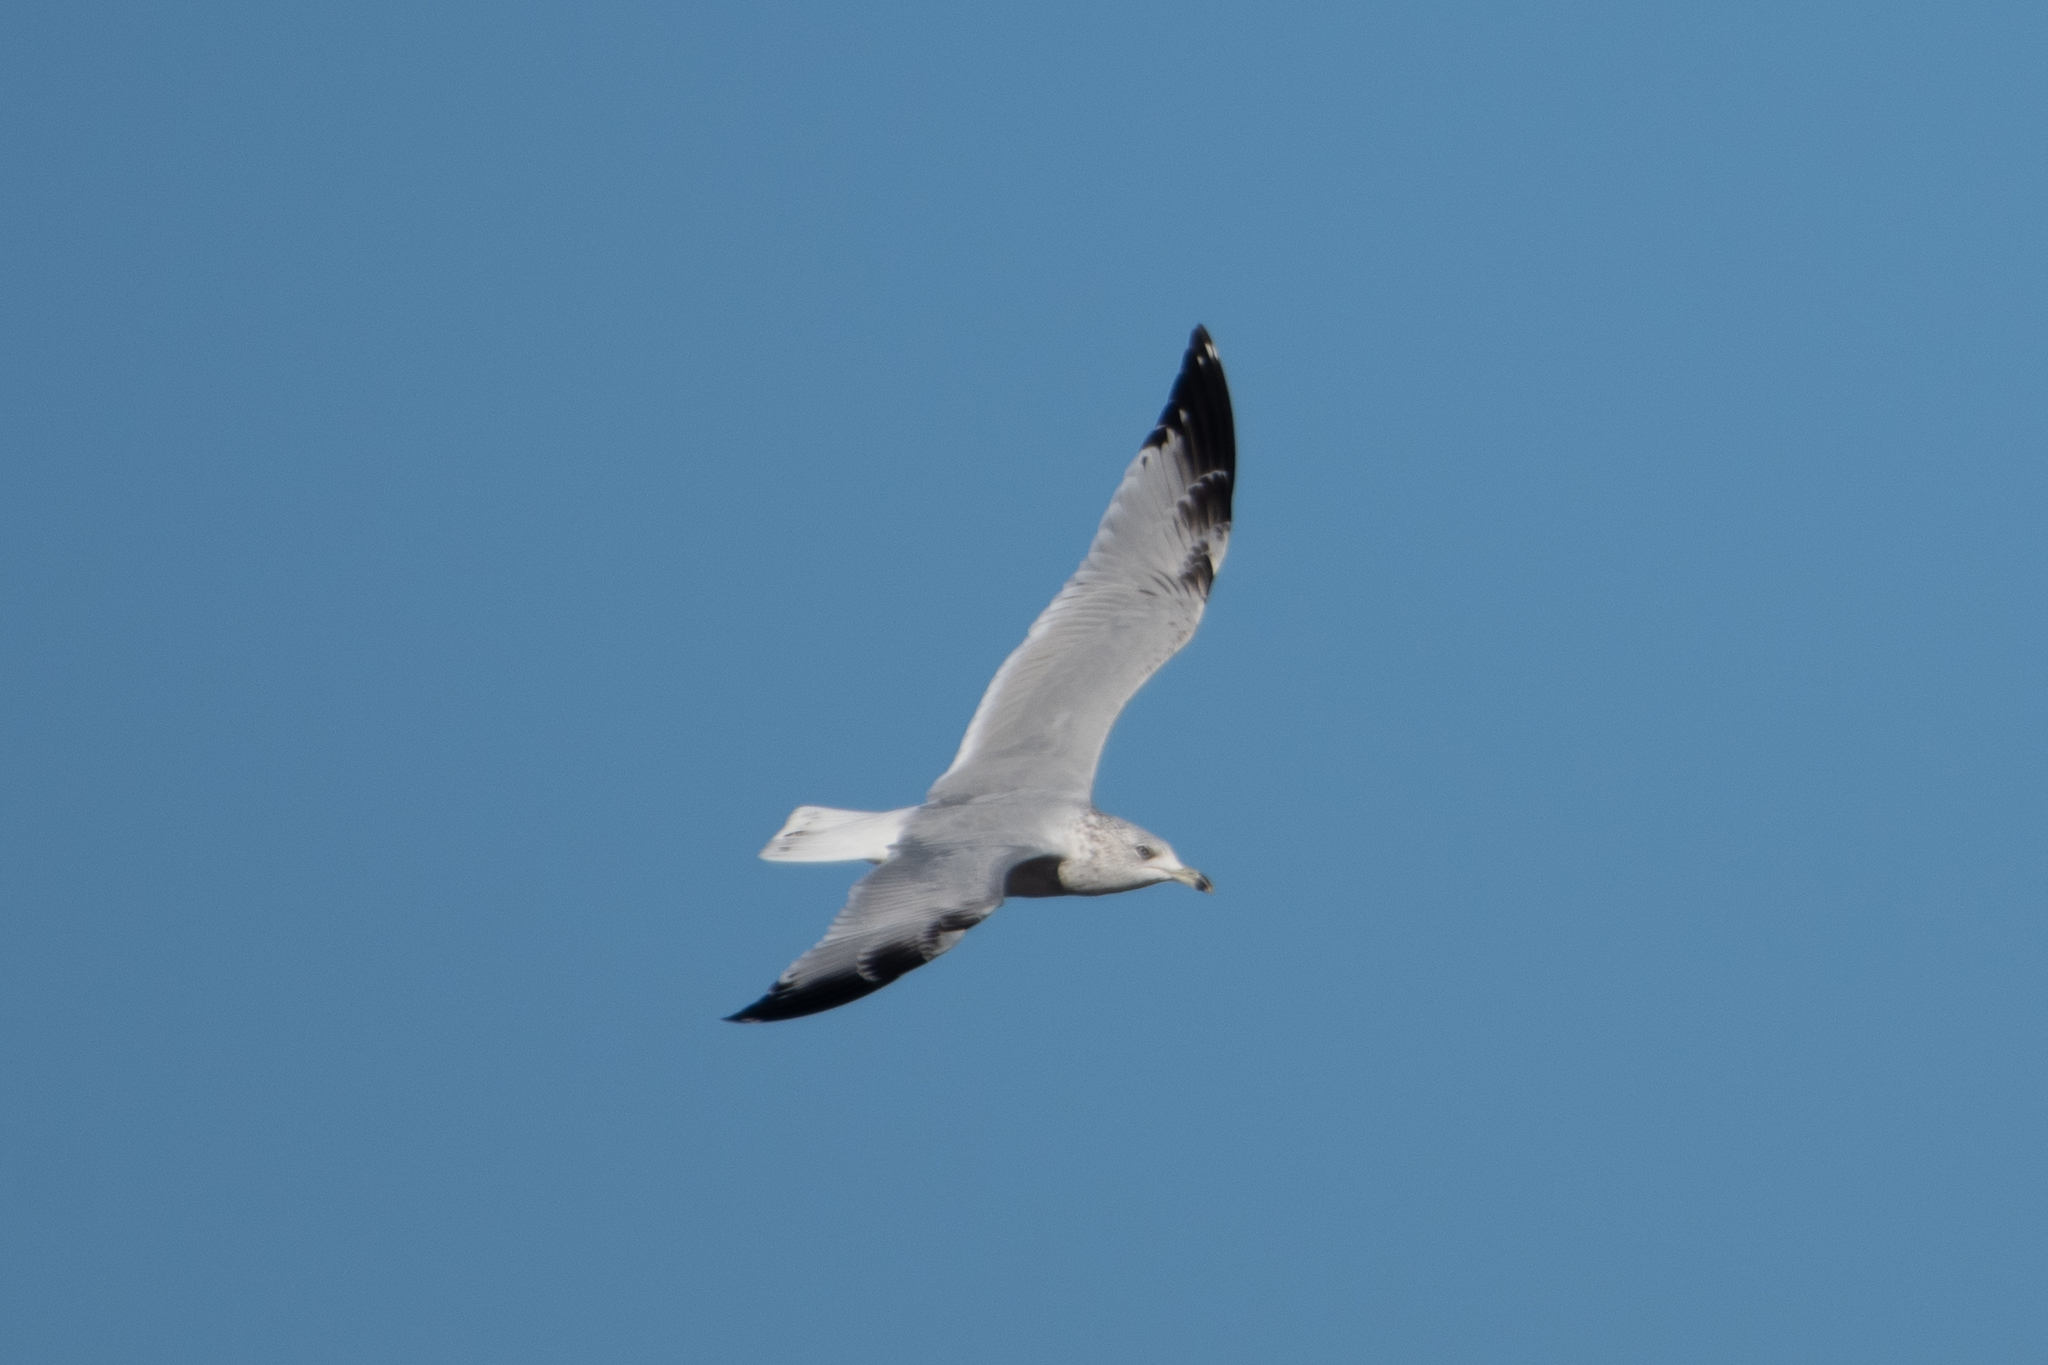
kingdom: Animalia
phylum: Chordata
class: Aves
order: Charadriiformes
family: Laridae
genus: Larus
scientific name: Larus delawarensis
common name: Ring-billed gull
